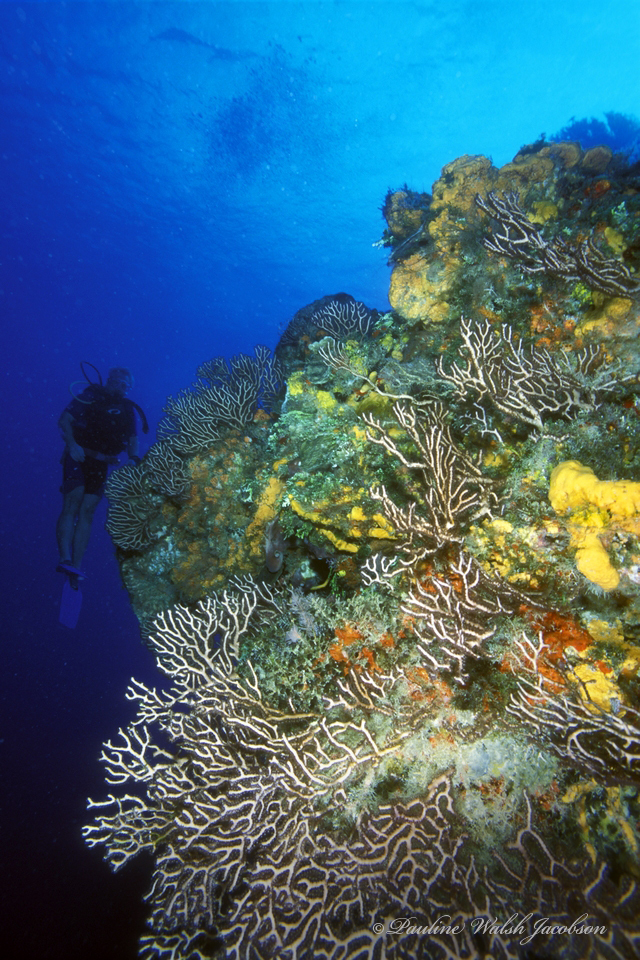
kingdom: Animalia
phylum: Cnidaria
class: Anthozoa
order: Malacalcyonacea
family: Melithaeidae
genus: Iciligorgia
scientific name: Iciligorgia schrammi
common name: Black sea fan
